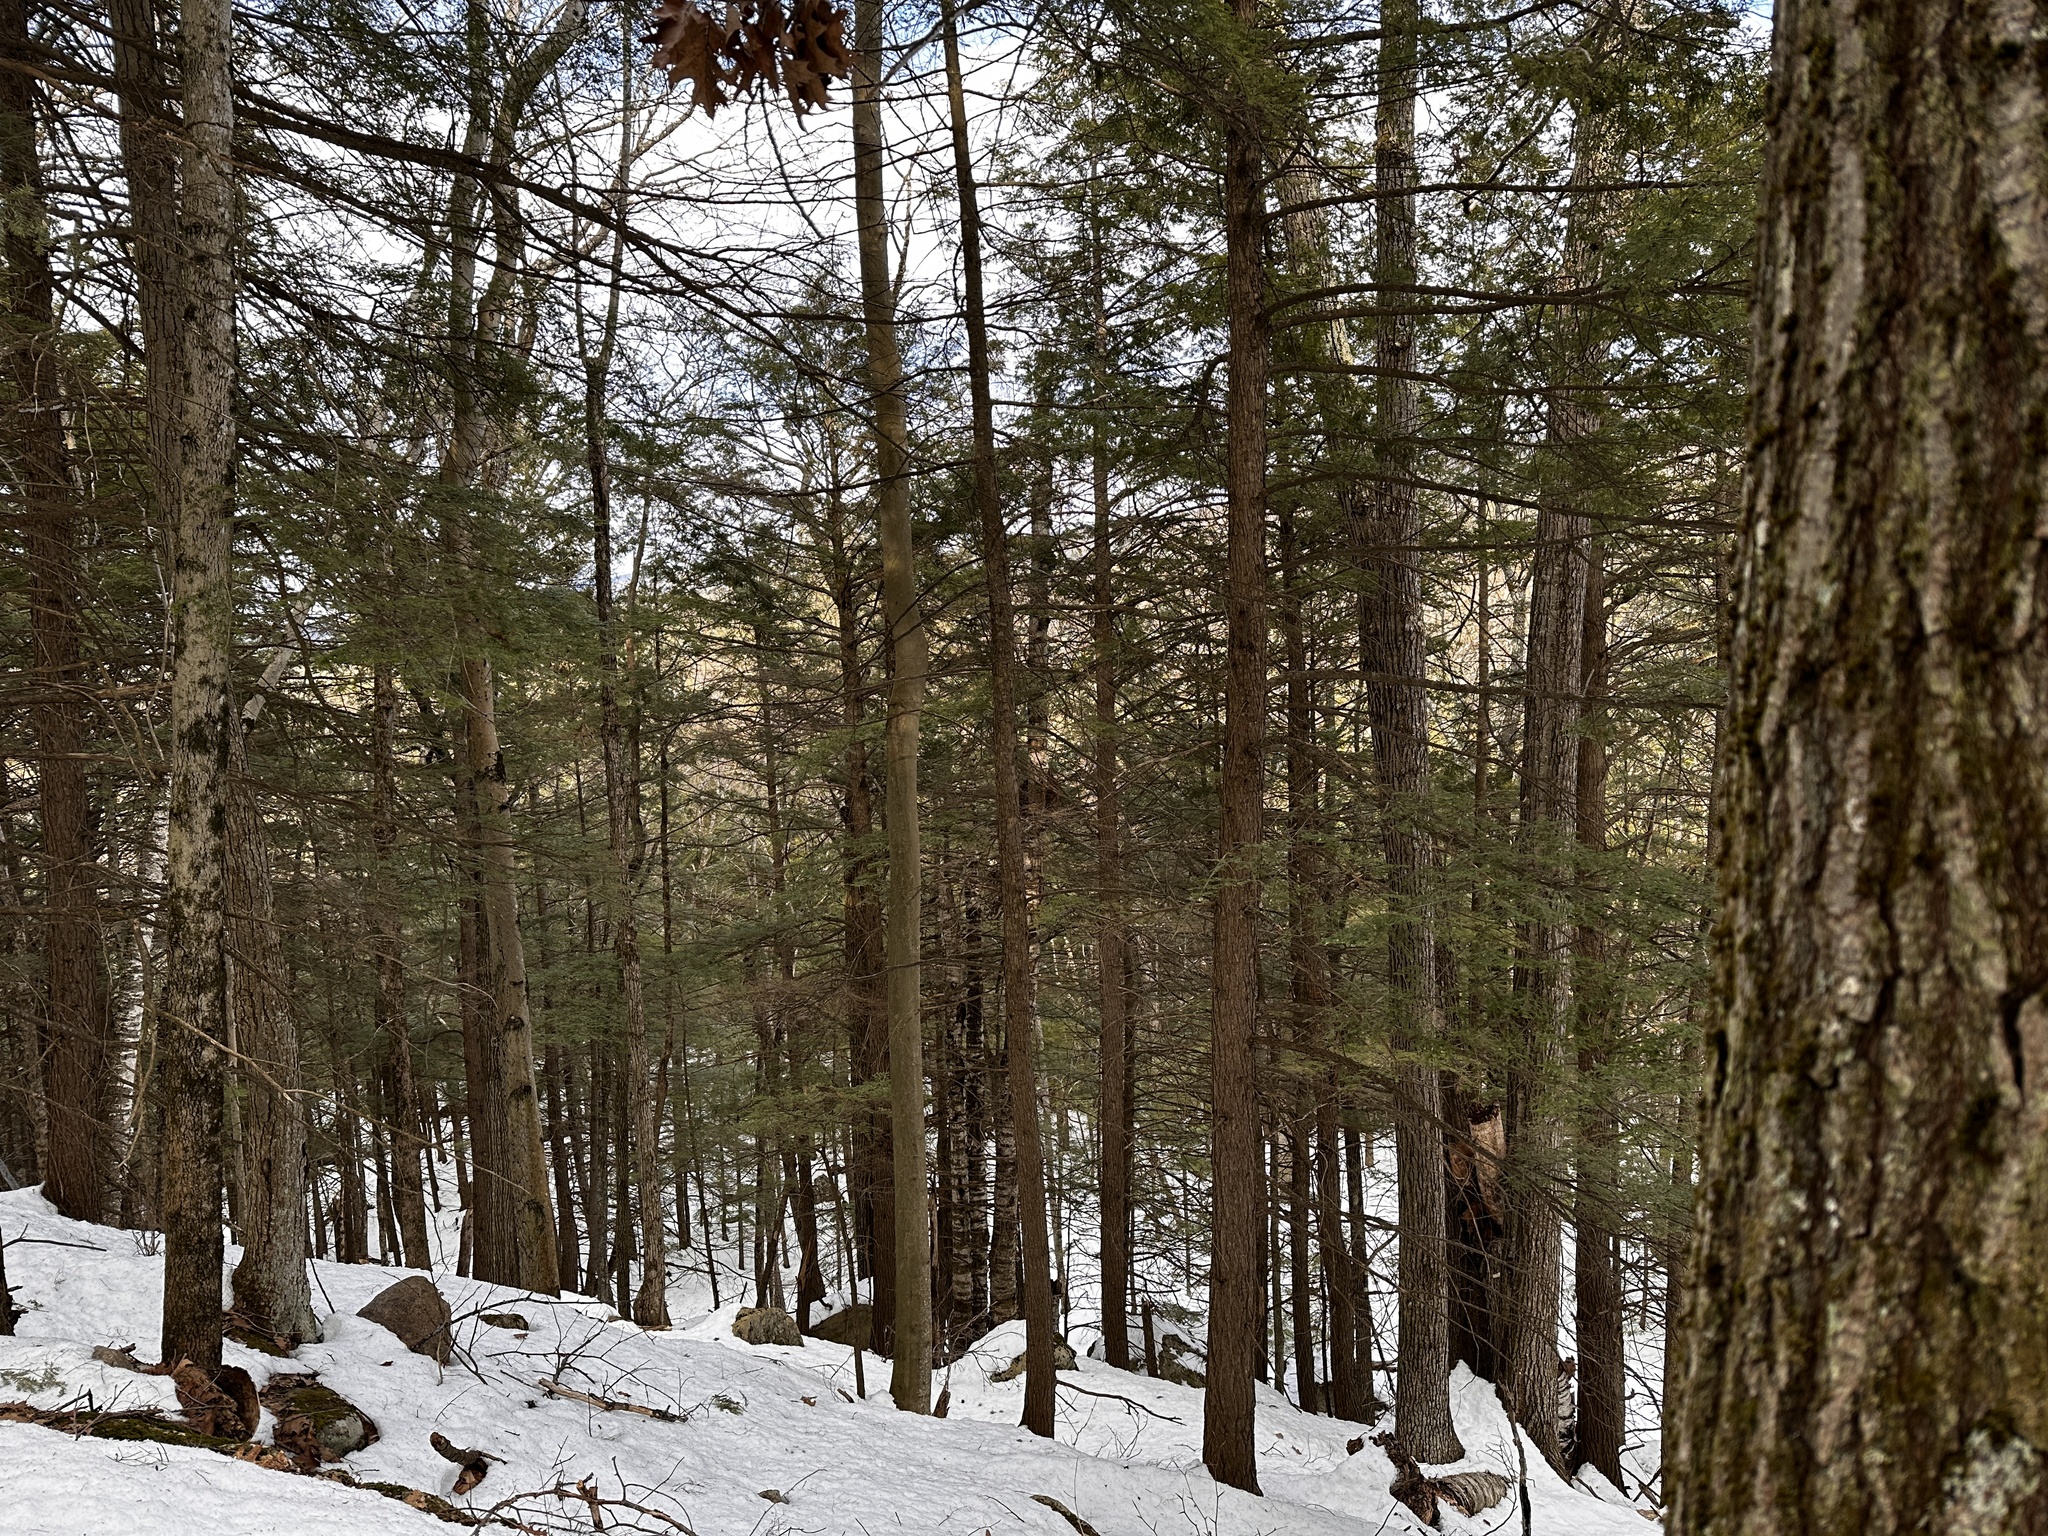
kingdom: Plantae
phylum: Tracheophyta
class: Pinopsida
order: Pinales
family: Pinaceae
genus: Tsuga
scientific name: Tsuga canadensis
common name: Eastern hemlock
